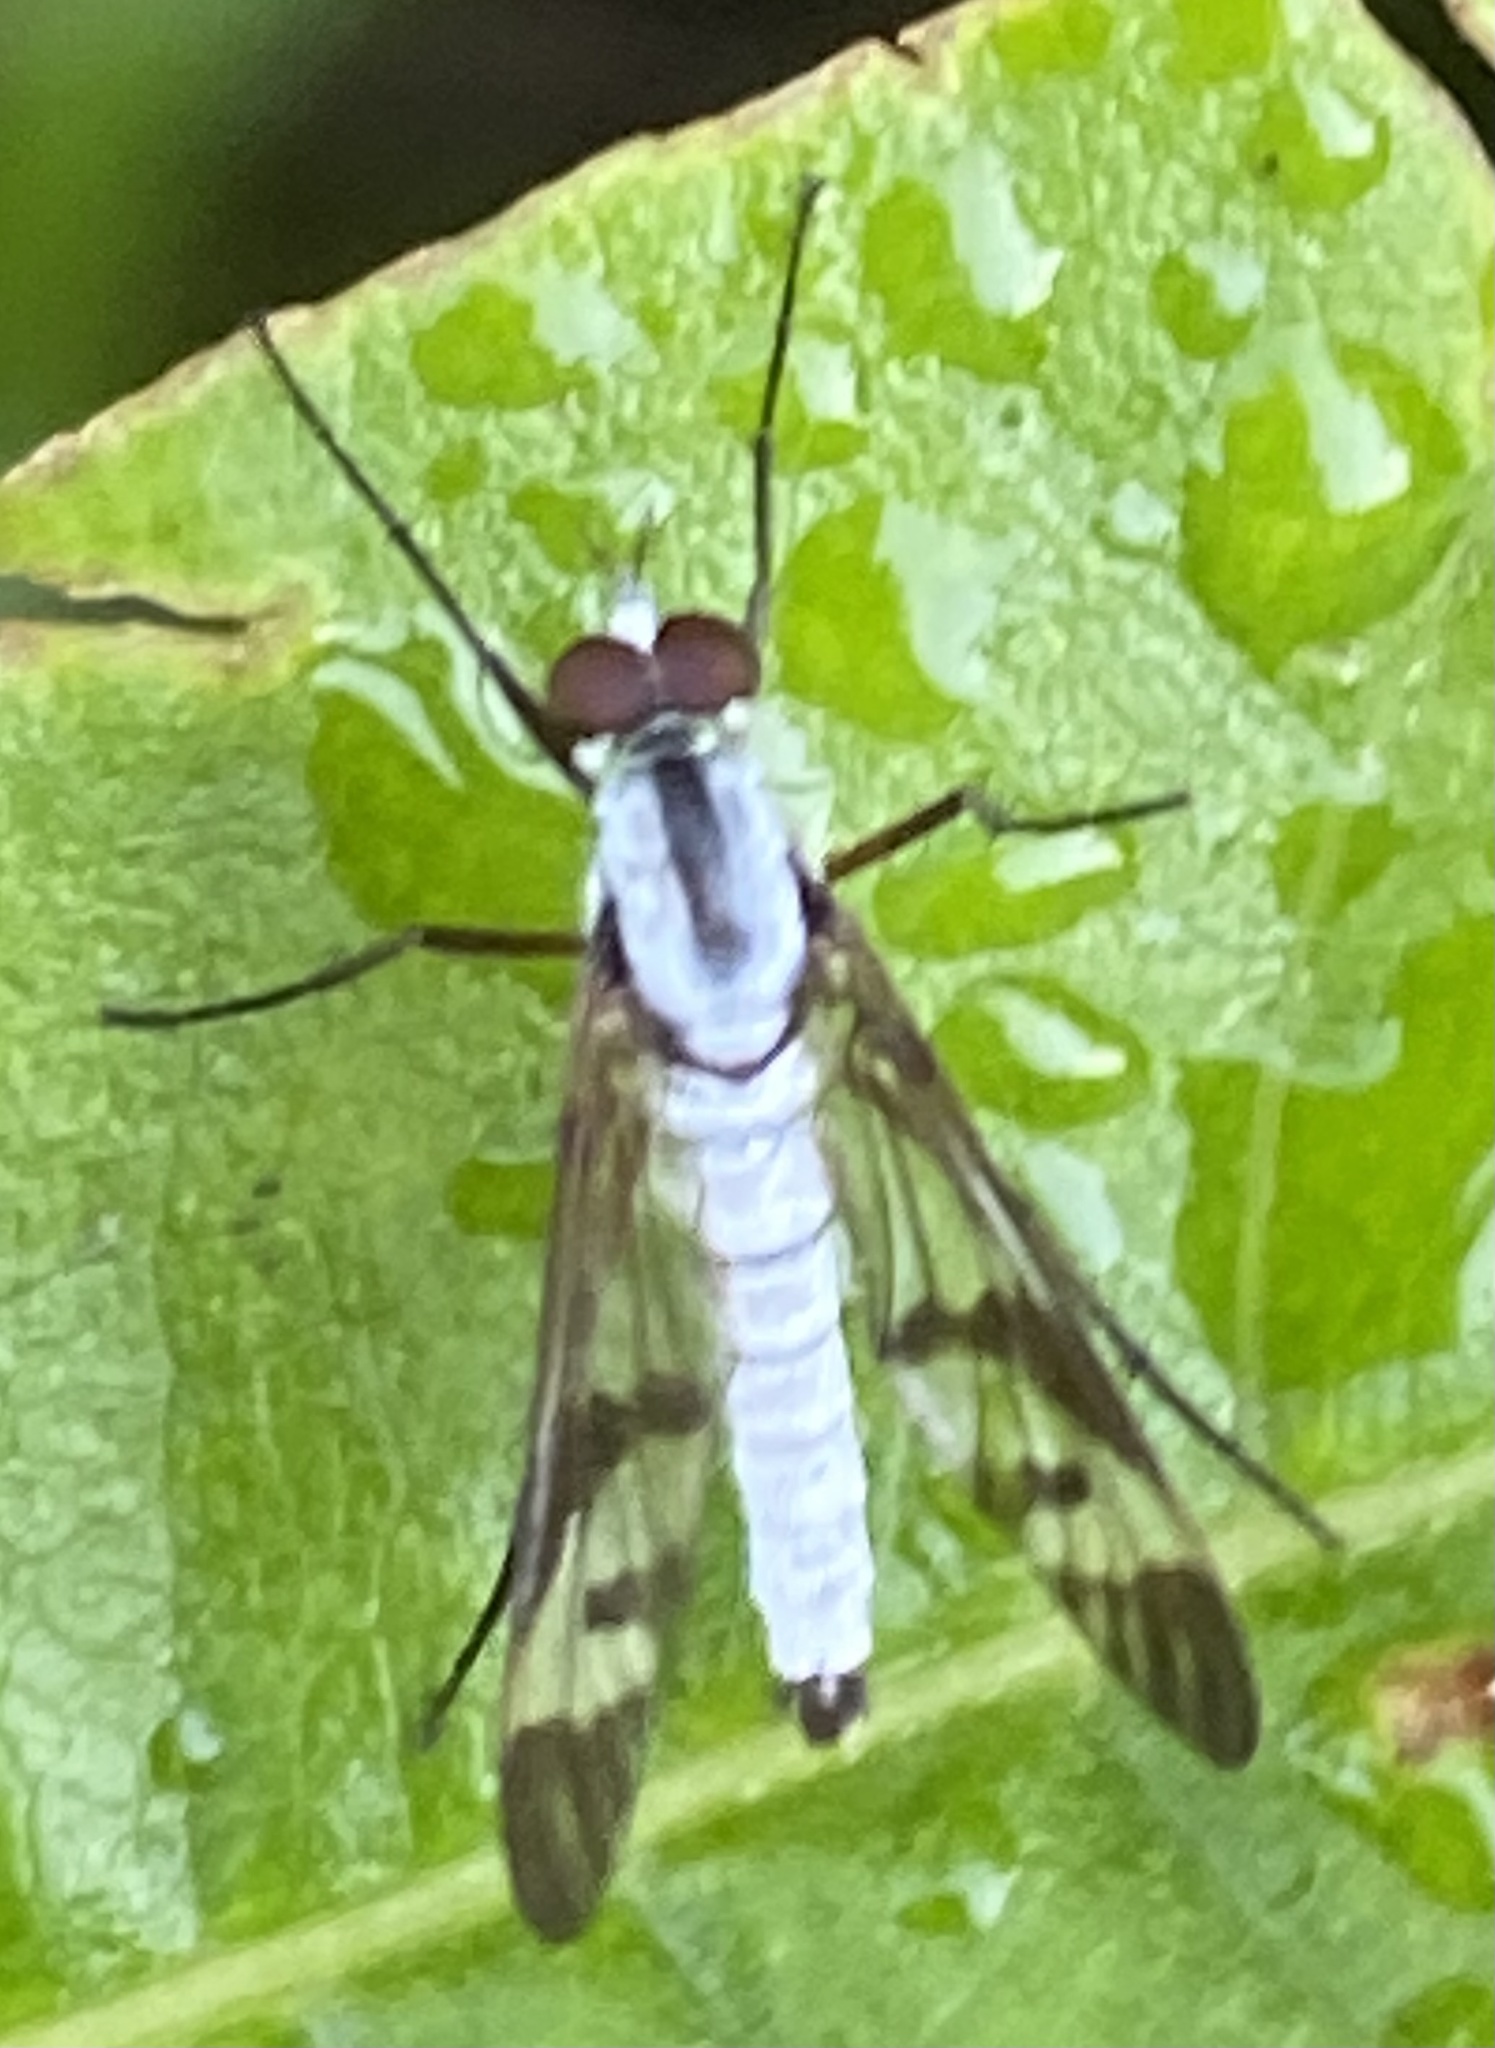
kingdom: Animalia
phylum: Arthropoda
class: Insecta
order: Diptera
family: Therevidae
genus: Lindneria
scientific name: Lindneria wintertoni
